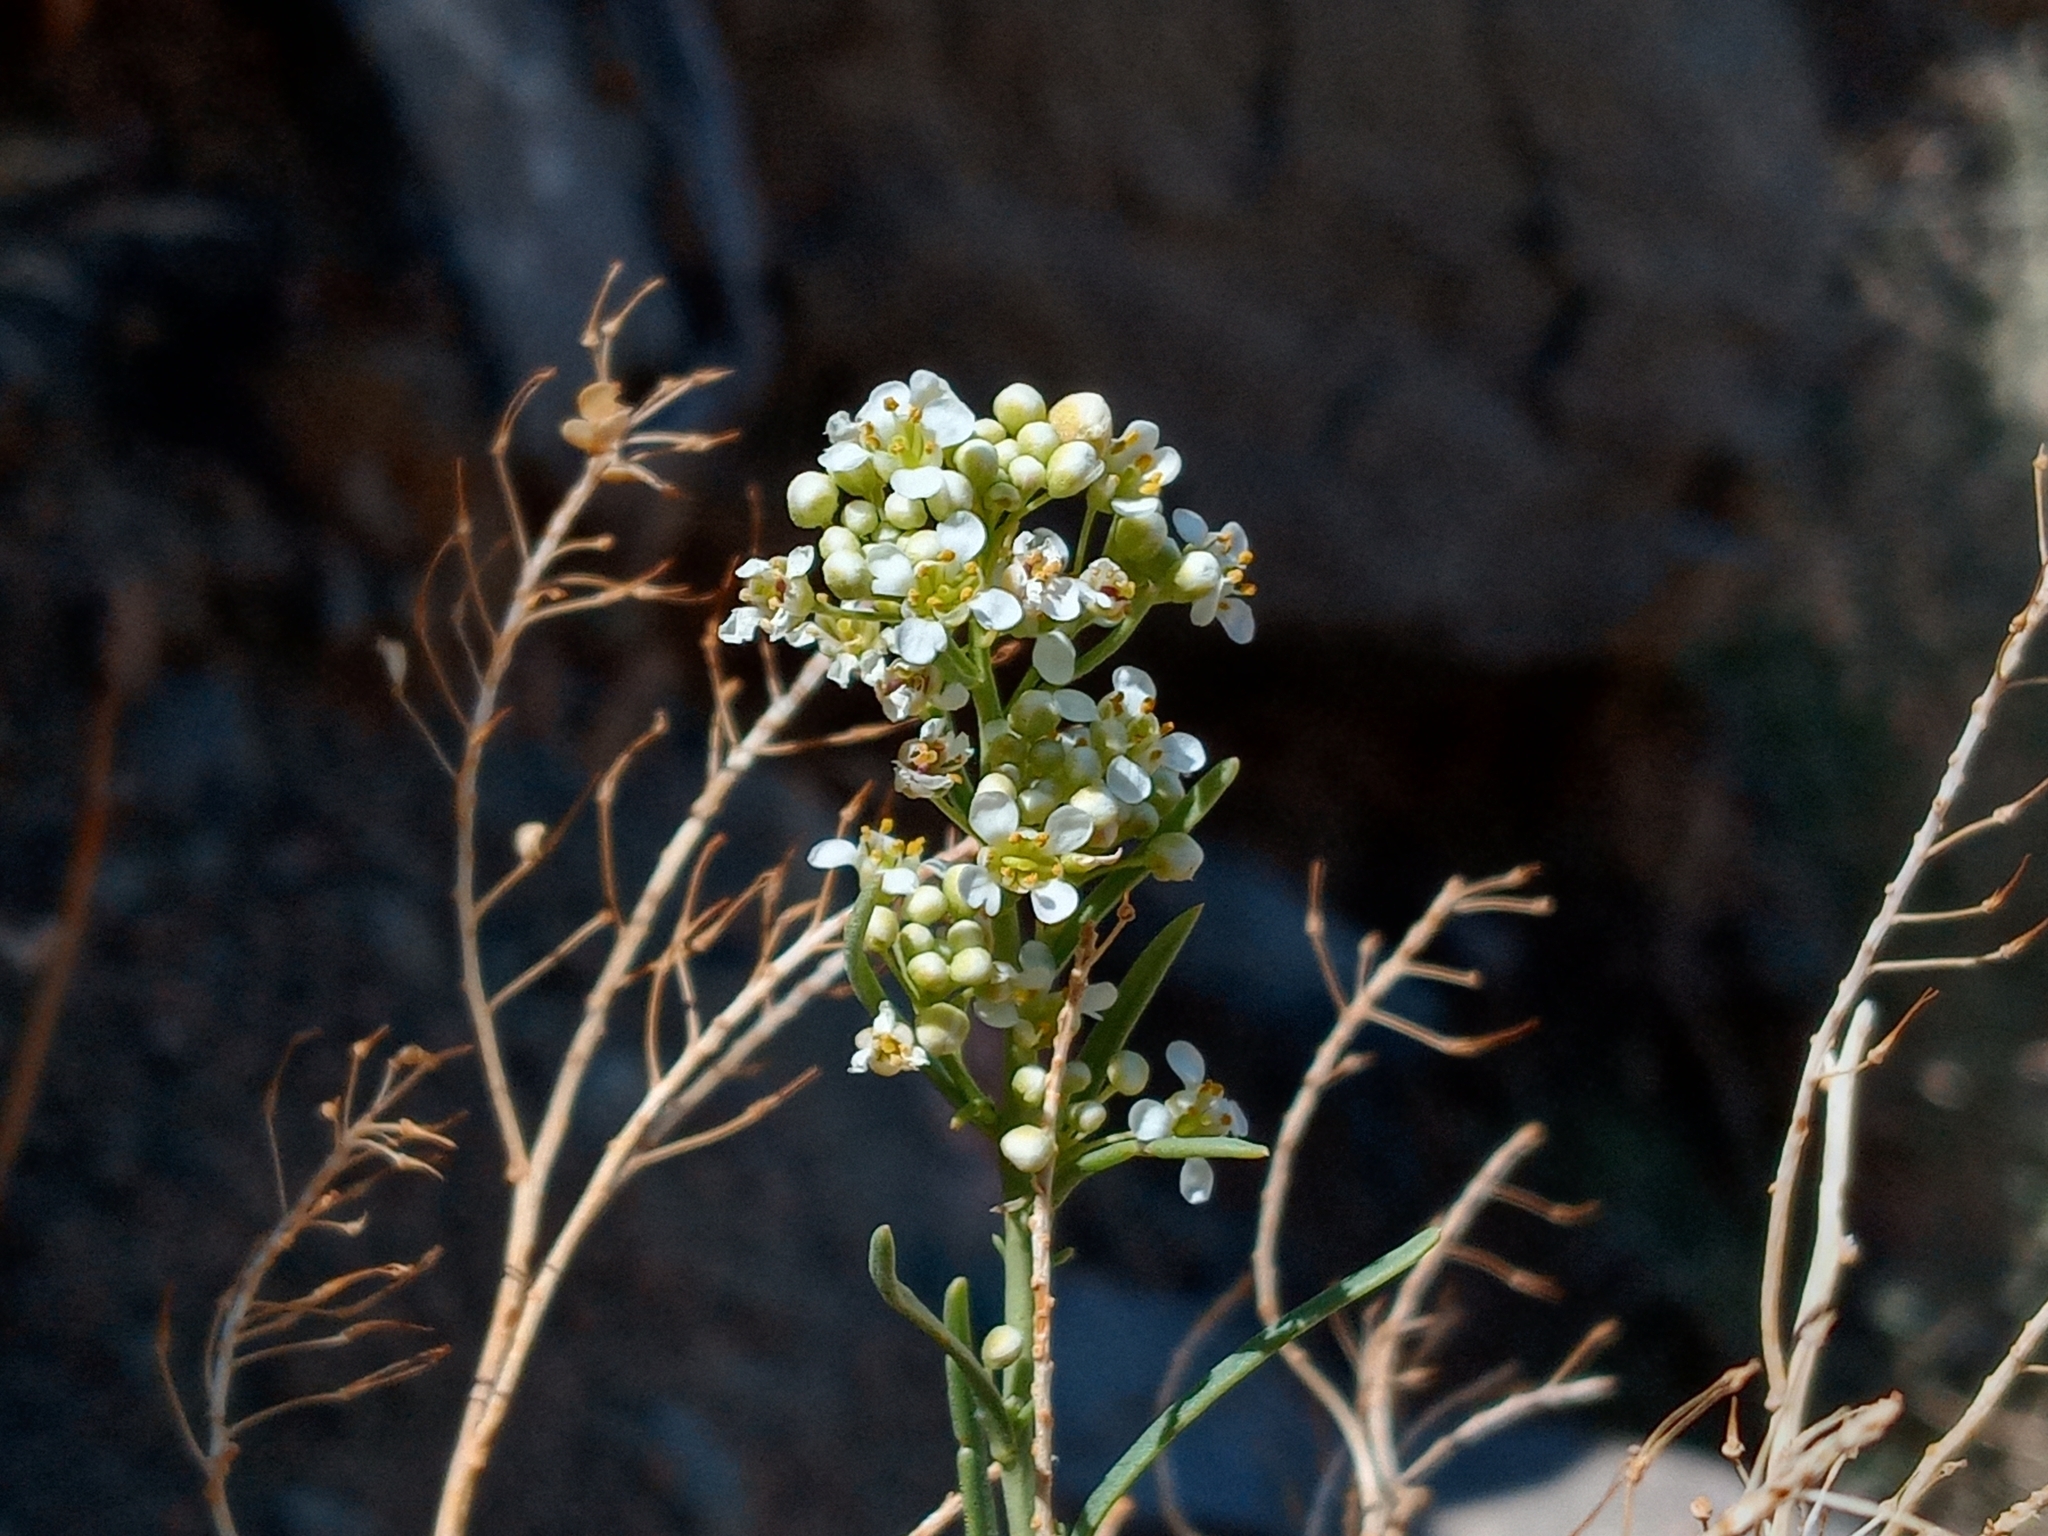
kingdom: Plantae
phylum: Tracheophyta
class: Magnoliopsida
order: Brassicales
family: Brassicaceae
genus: Lepidium
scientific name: Lepidium fremontii
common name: Fremont's pepperwort
